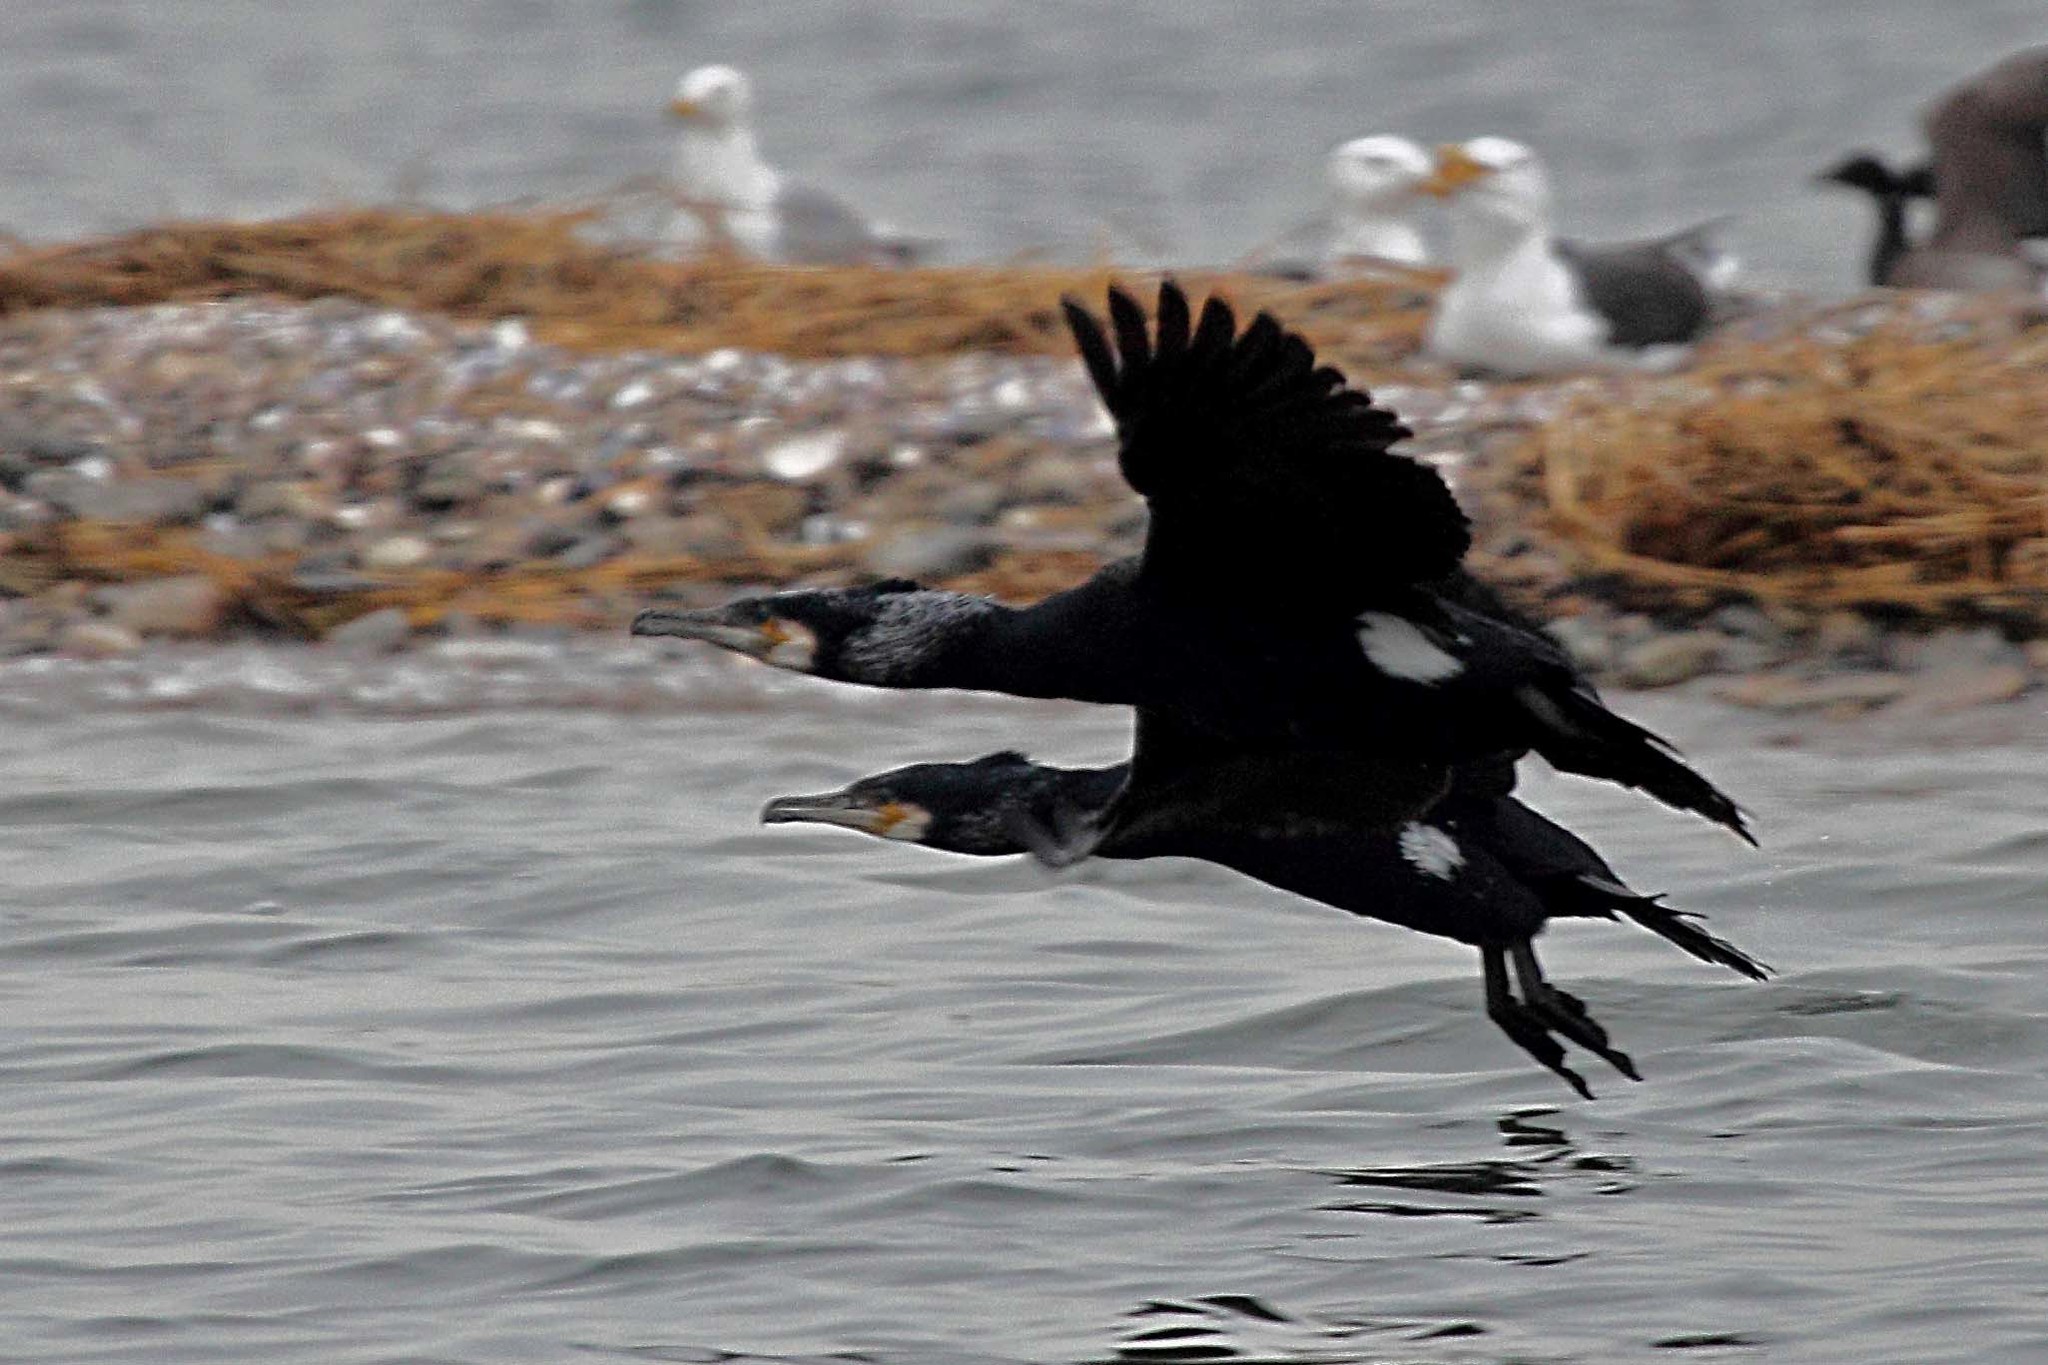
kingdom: Animalia
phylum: Chordata
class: Aves
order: Suliformes
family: Phalacrocoracidae
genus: Phalacrocorax
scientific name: Phalacrocorax carbo
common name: Great cormorant
